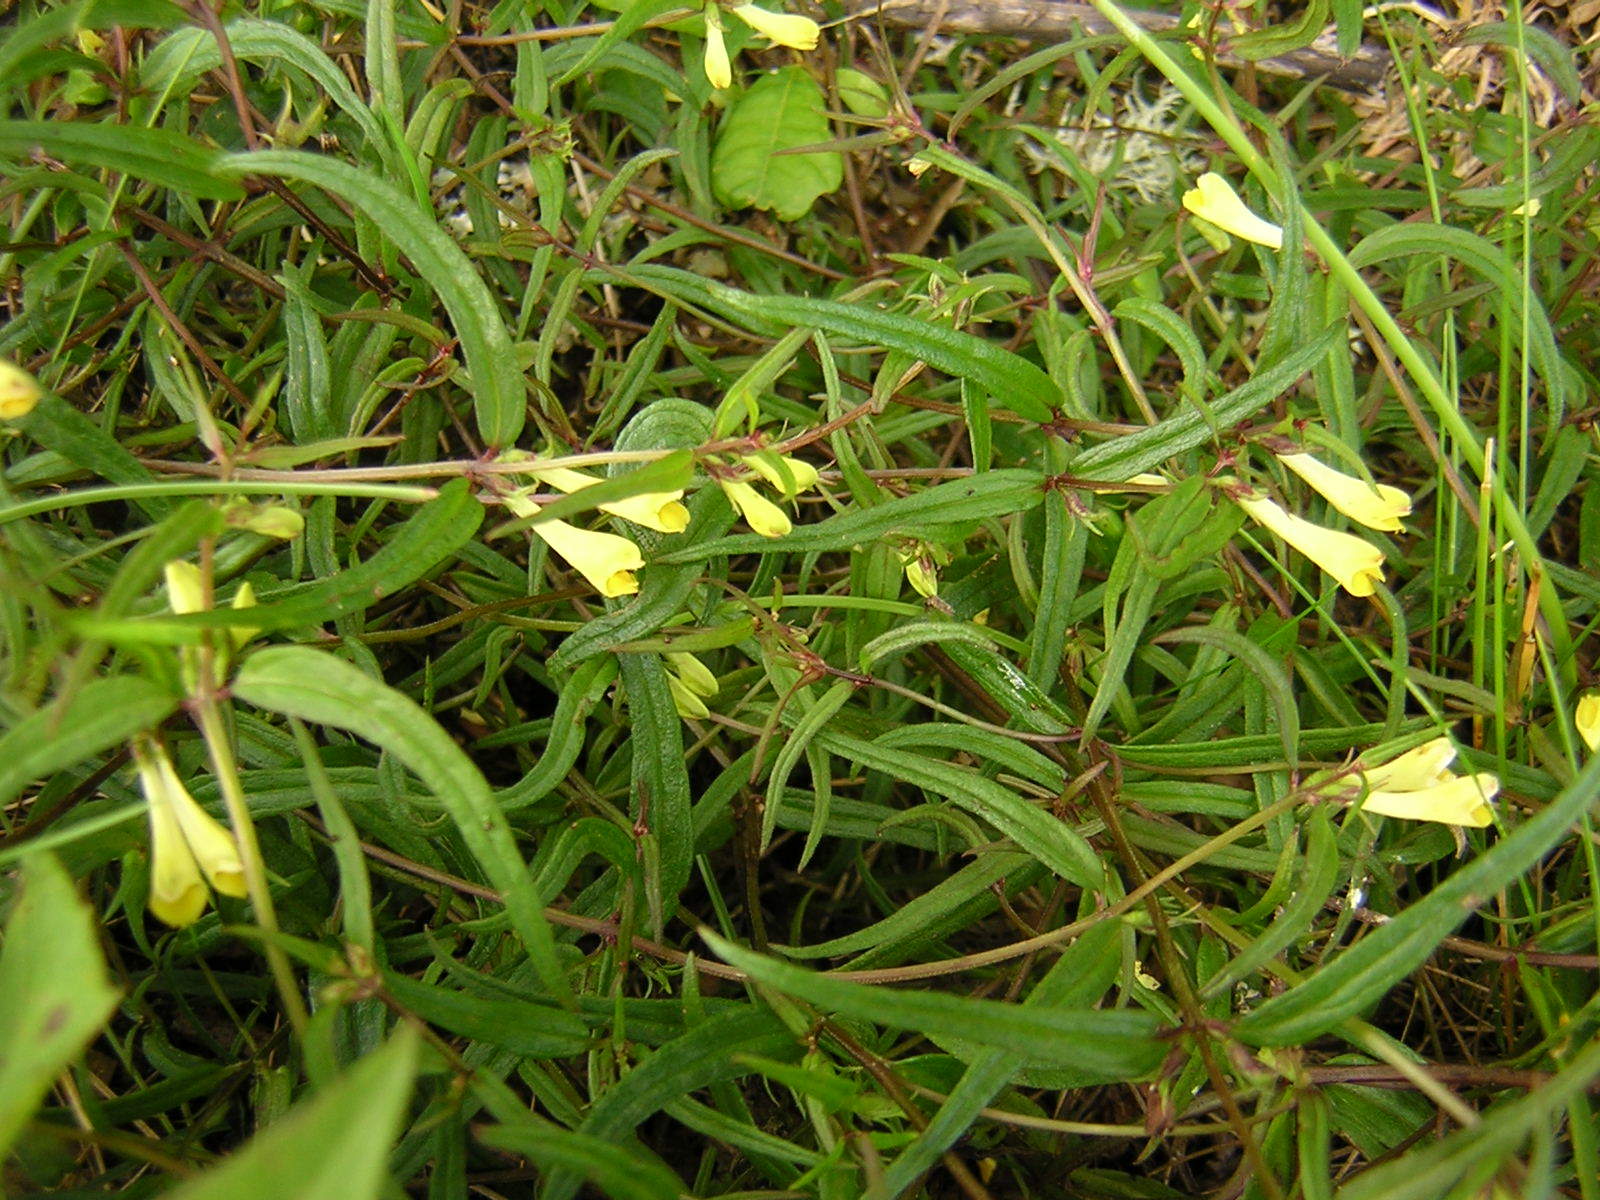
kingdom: Plantae
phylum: Tracheophyta
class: Magnoliopsida
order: Lamiales
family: Orobanchaceae
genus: Melampyrum
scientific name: Melampyrum pratense
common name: Common cow-wheat
